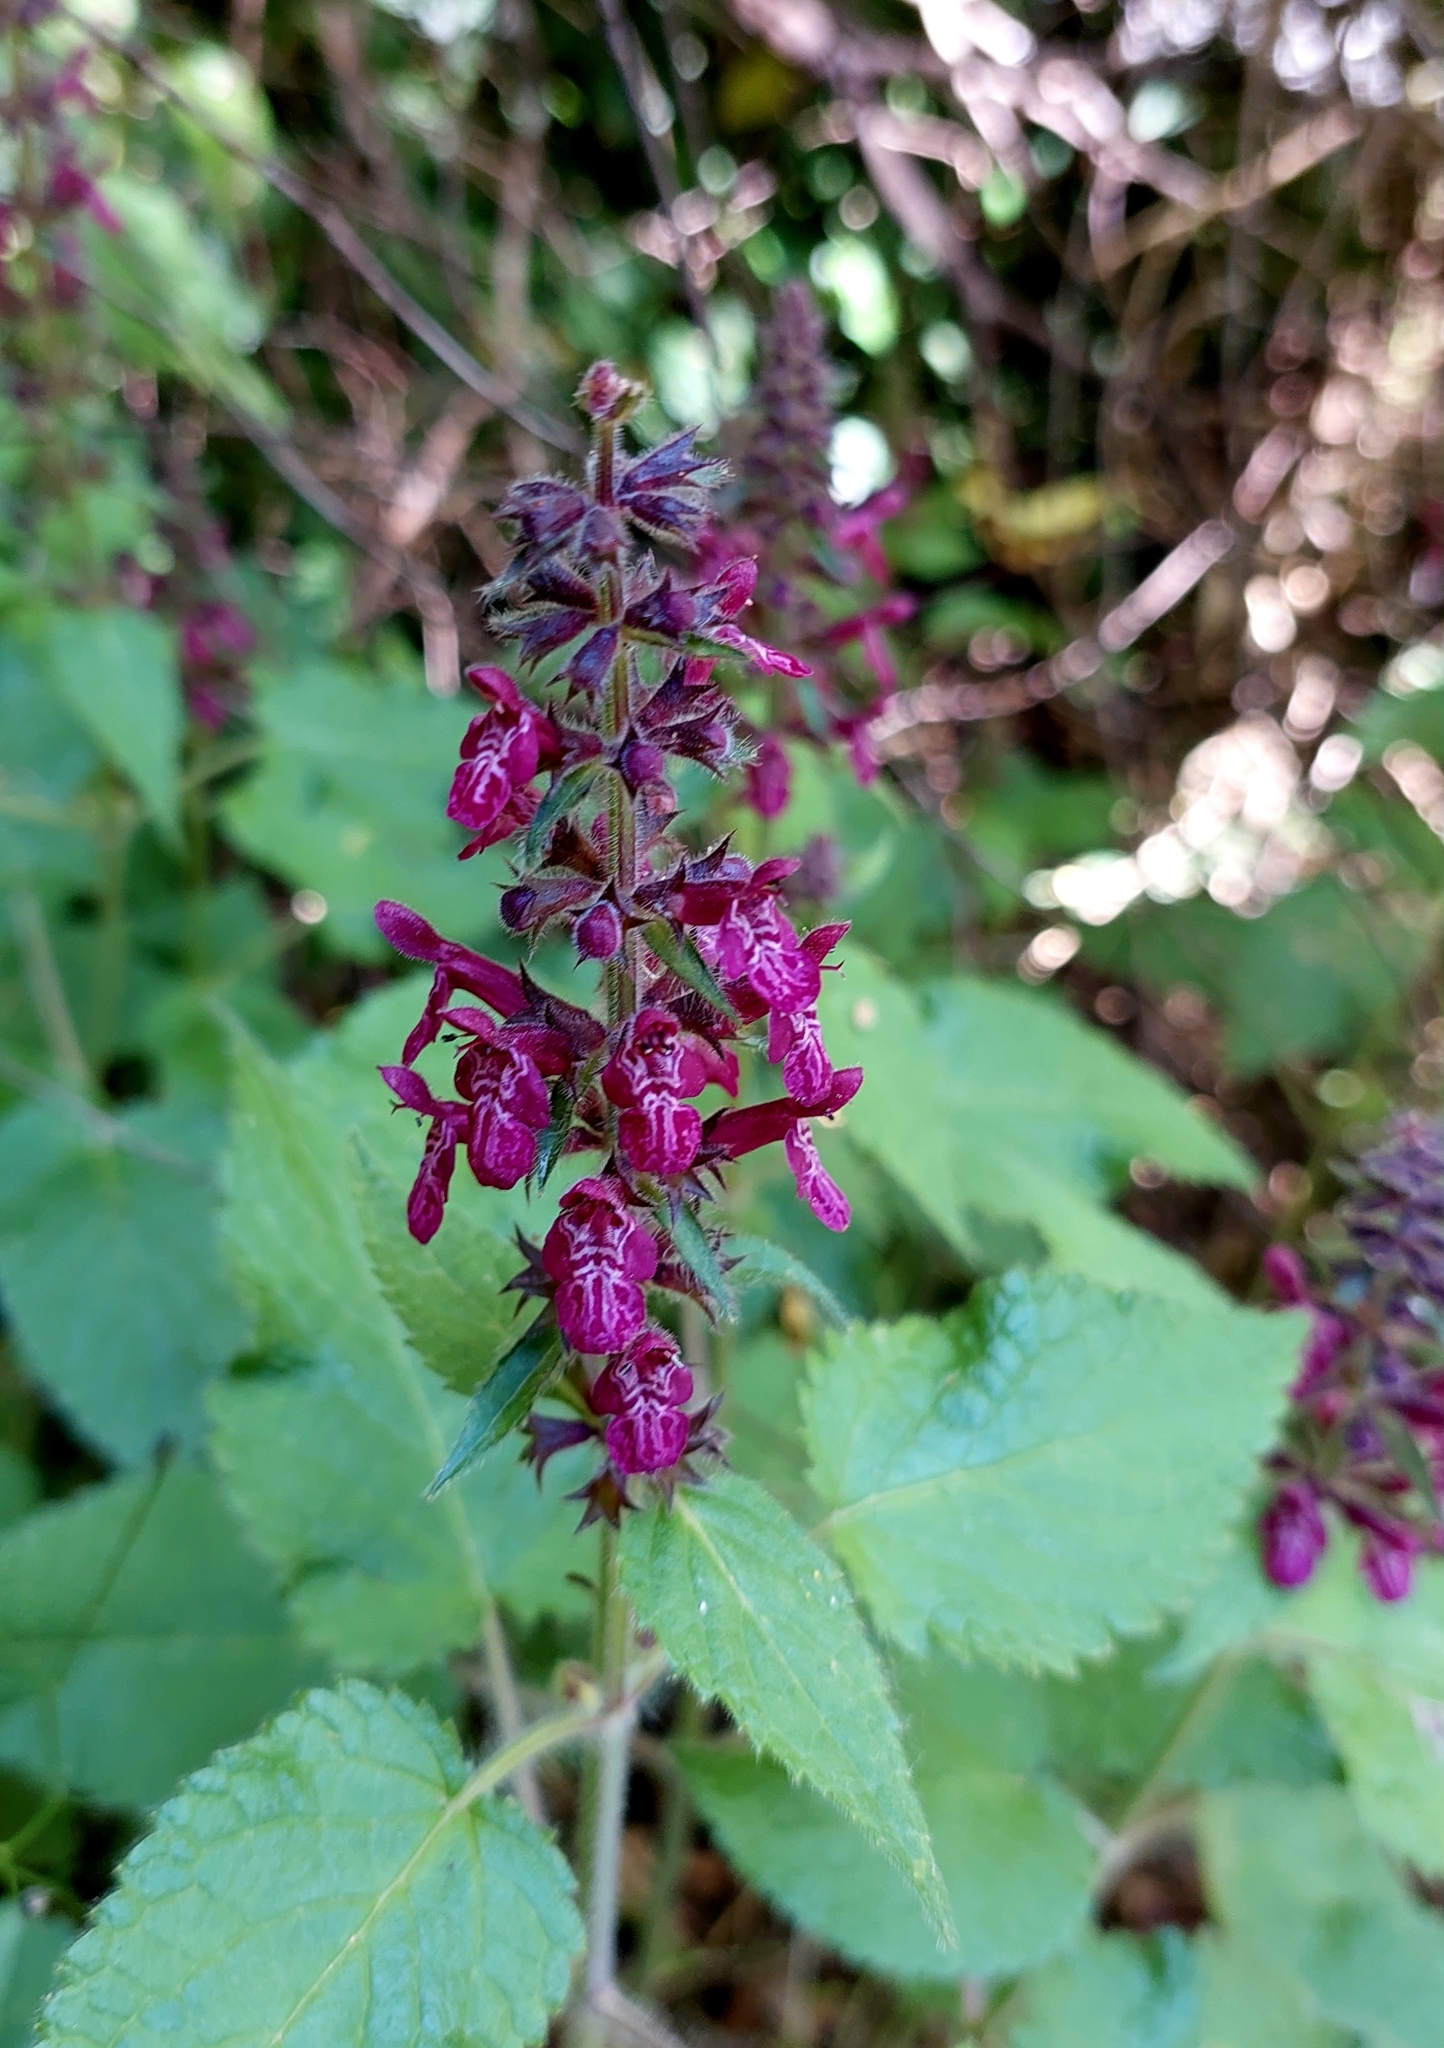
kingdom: Plantae
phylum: Tracheophyta
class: Magnoliopsida
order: Lamiales
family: Lamiaceae
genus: Stachys
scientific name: Stachys sylvatica
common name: Hedge woundwort
